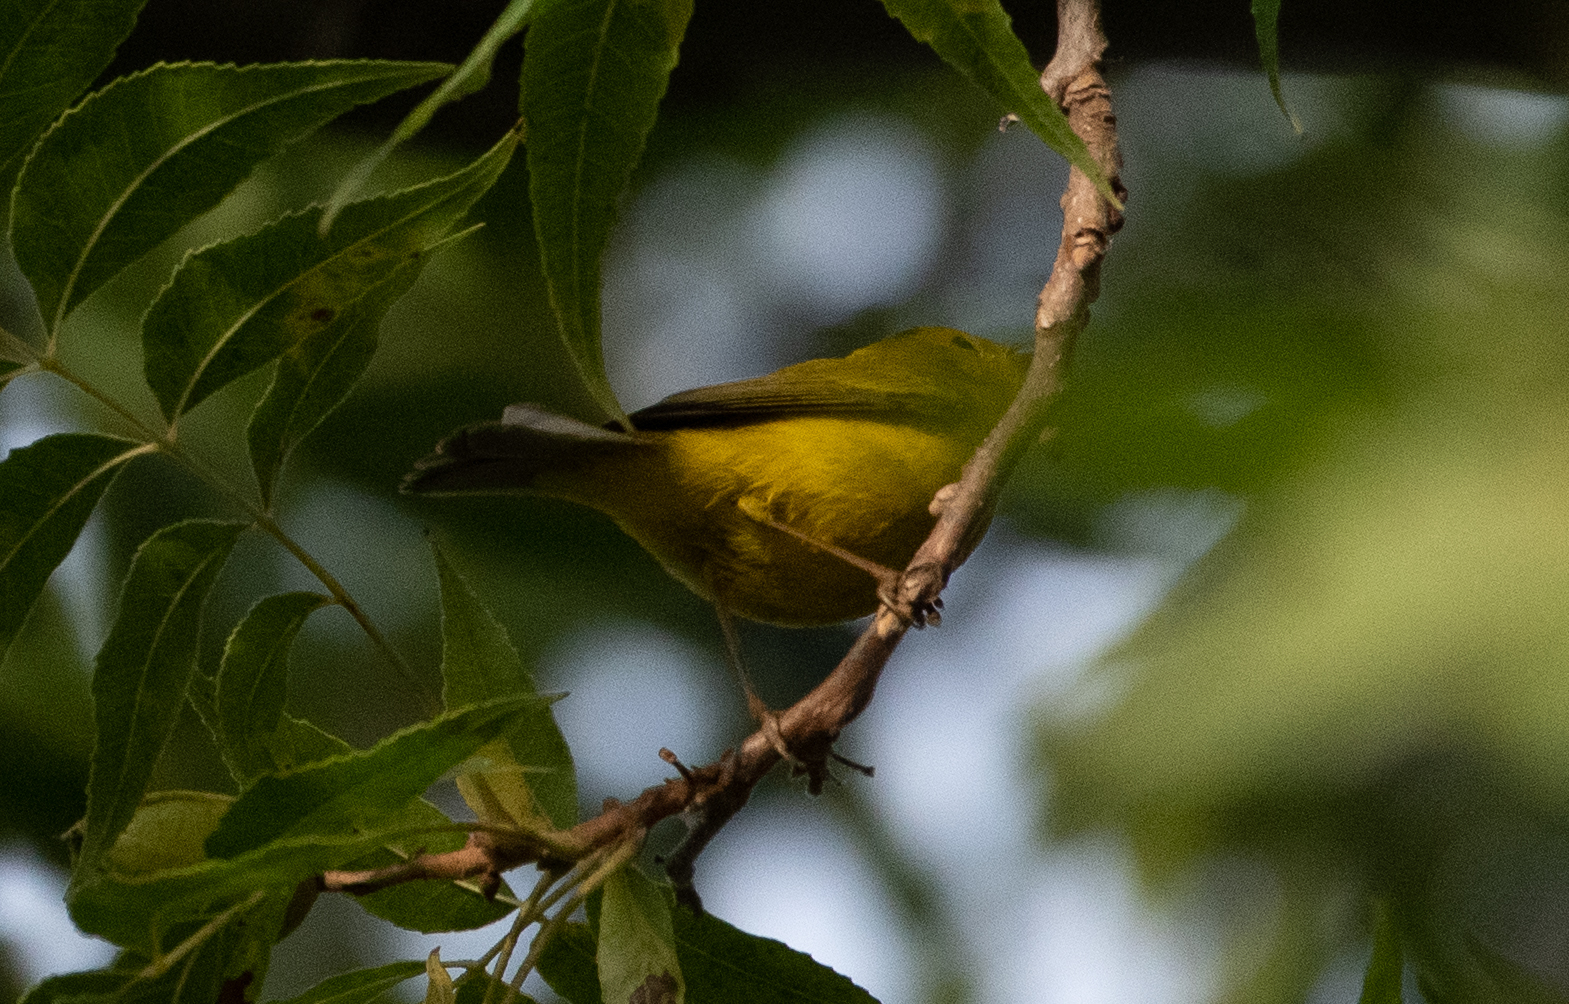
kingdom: Animalia
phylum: Chordata
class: Aves
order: Passeriformes
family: Parulidae
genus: Cardellina
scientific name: Cardellina pusilla
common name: Wilson's warbler
